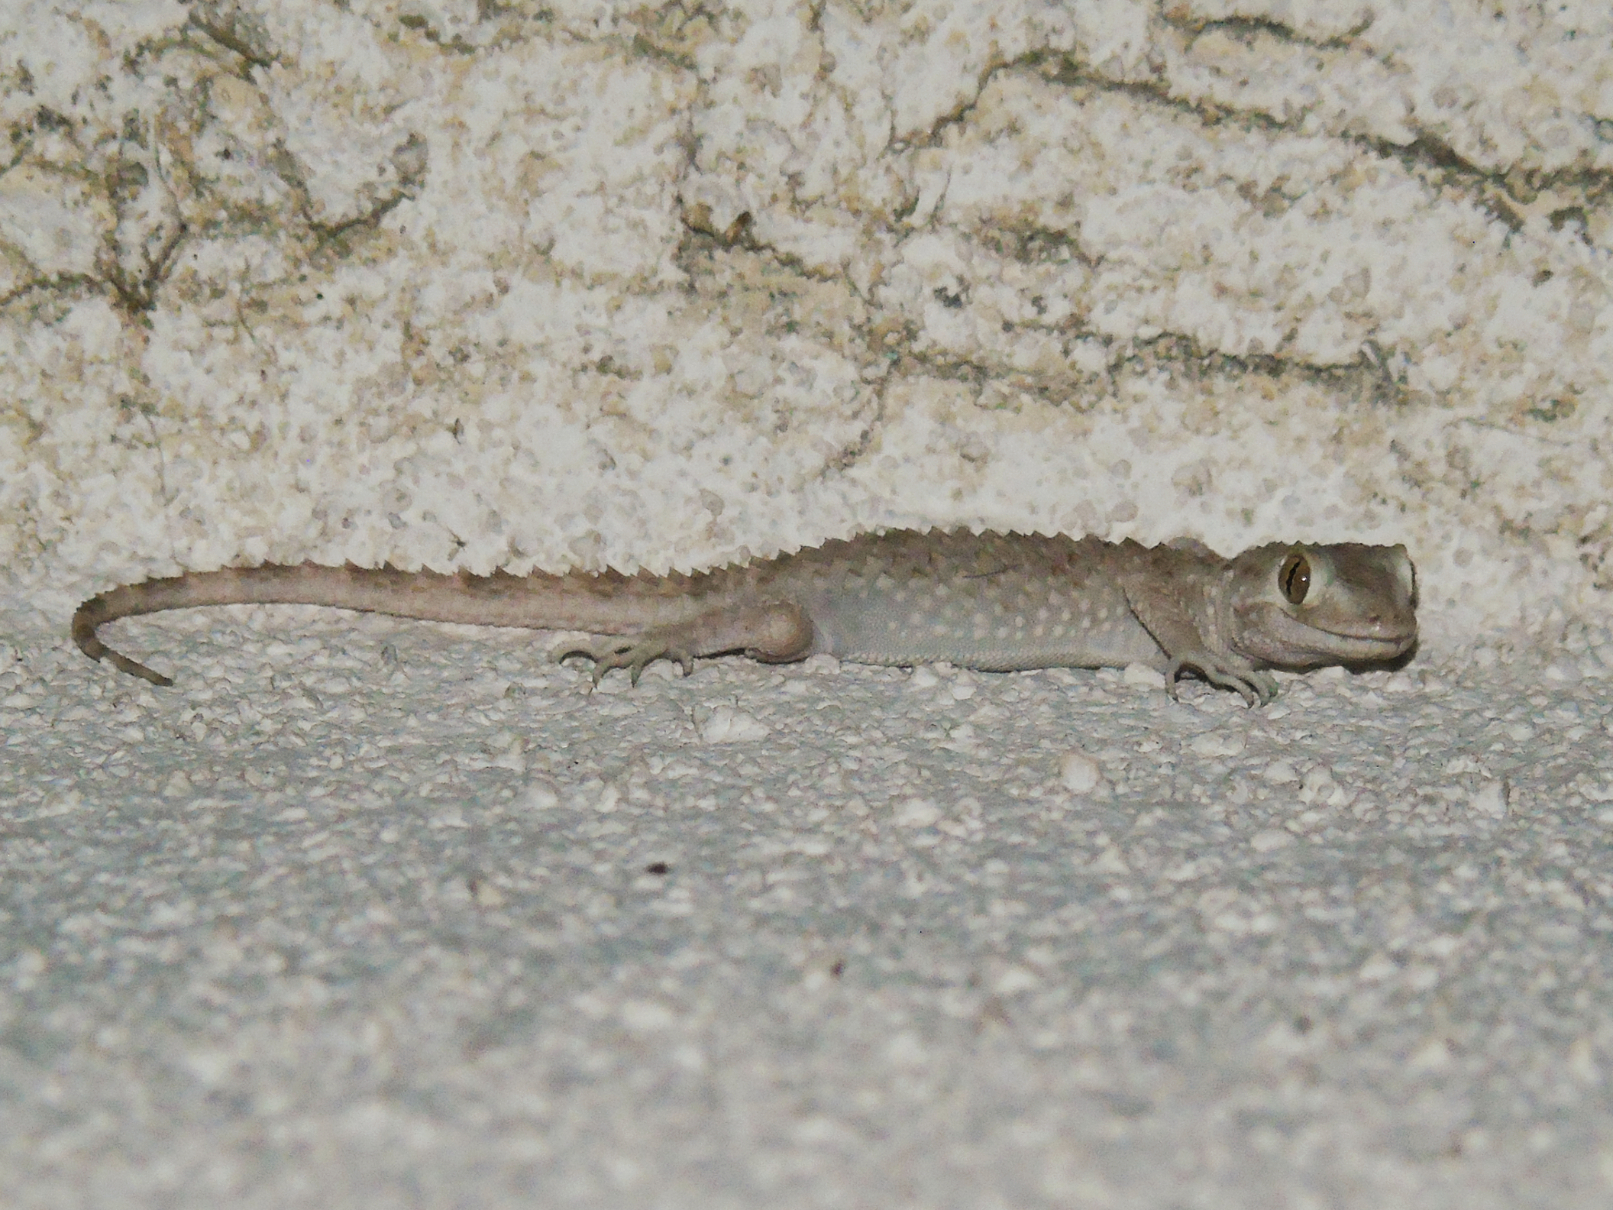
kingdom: Animalia
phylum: Chordata
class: Squamata
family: Gekkonidae
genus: Tenuidactylus
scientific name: Tenuidactylus caspius
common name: Caspian bent-toed gecko
